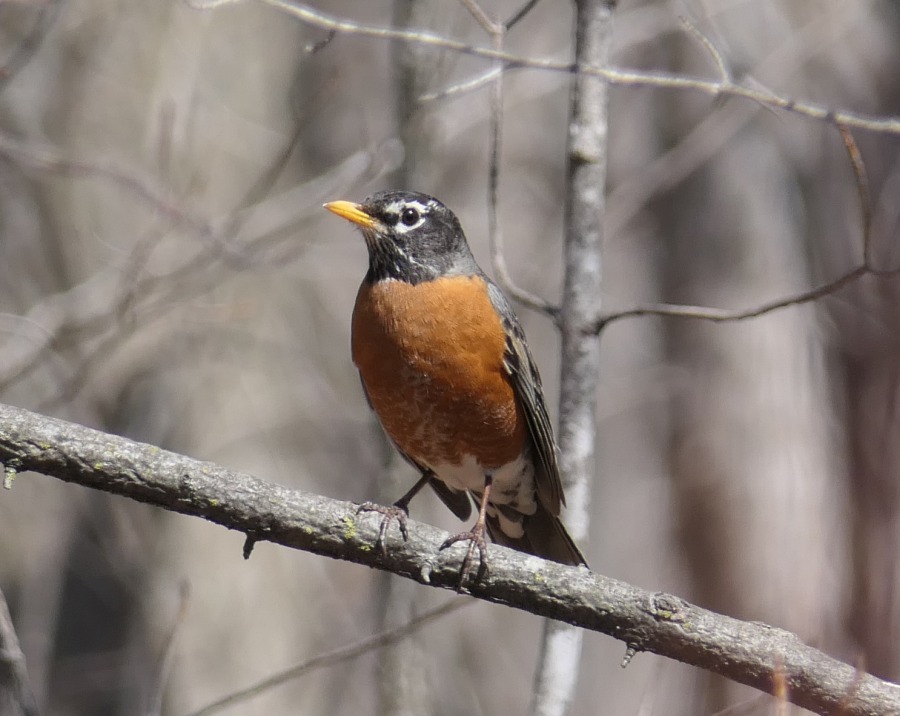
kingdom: Animalia
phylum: Chordata
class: Aves
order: Passeriformes
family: Turdidae
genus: Turdus
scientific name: Turdus migratorius
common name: American robin
